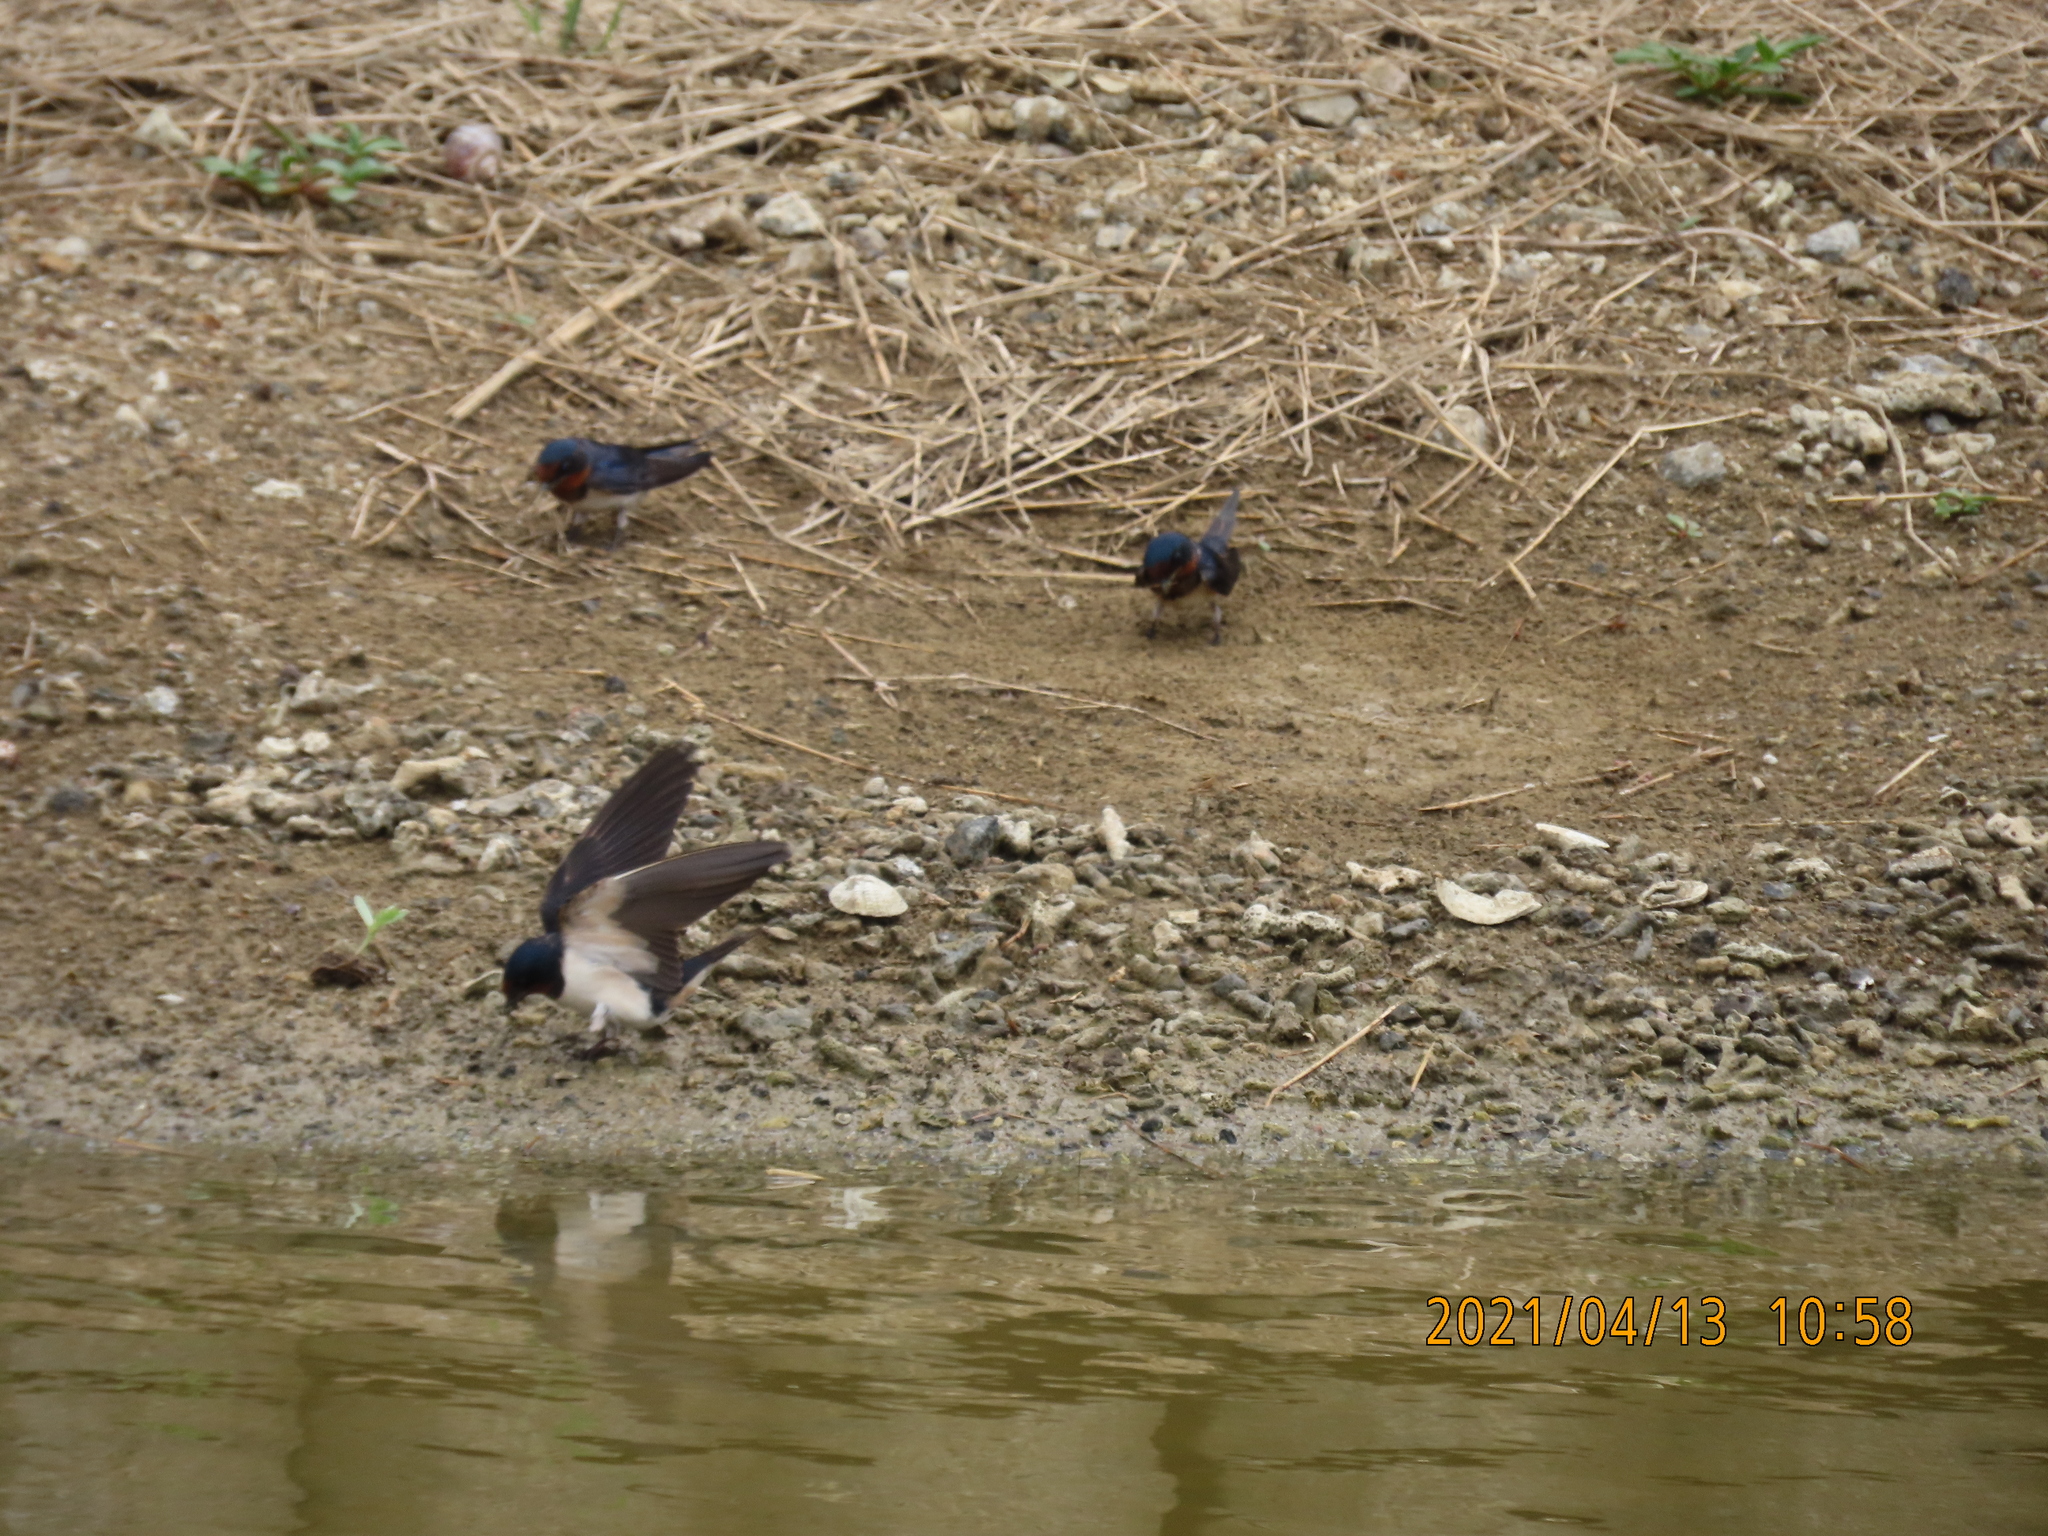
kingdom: Animalia
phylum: Chordata
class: Aves
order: Passeriformes
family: Hirundinidae
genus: Hirundo
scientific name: Hirundo rustica
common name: Barn swallow
